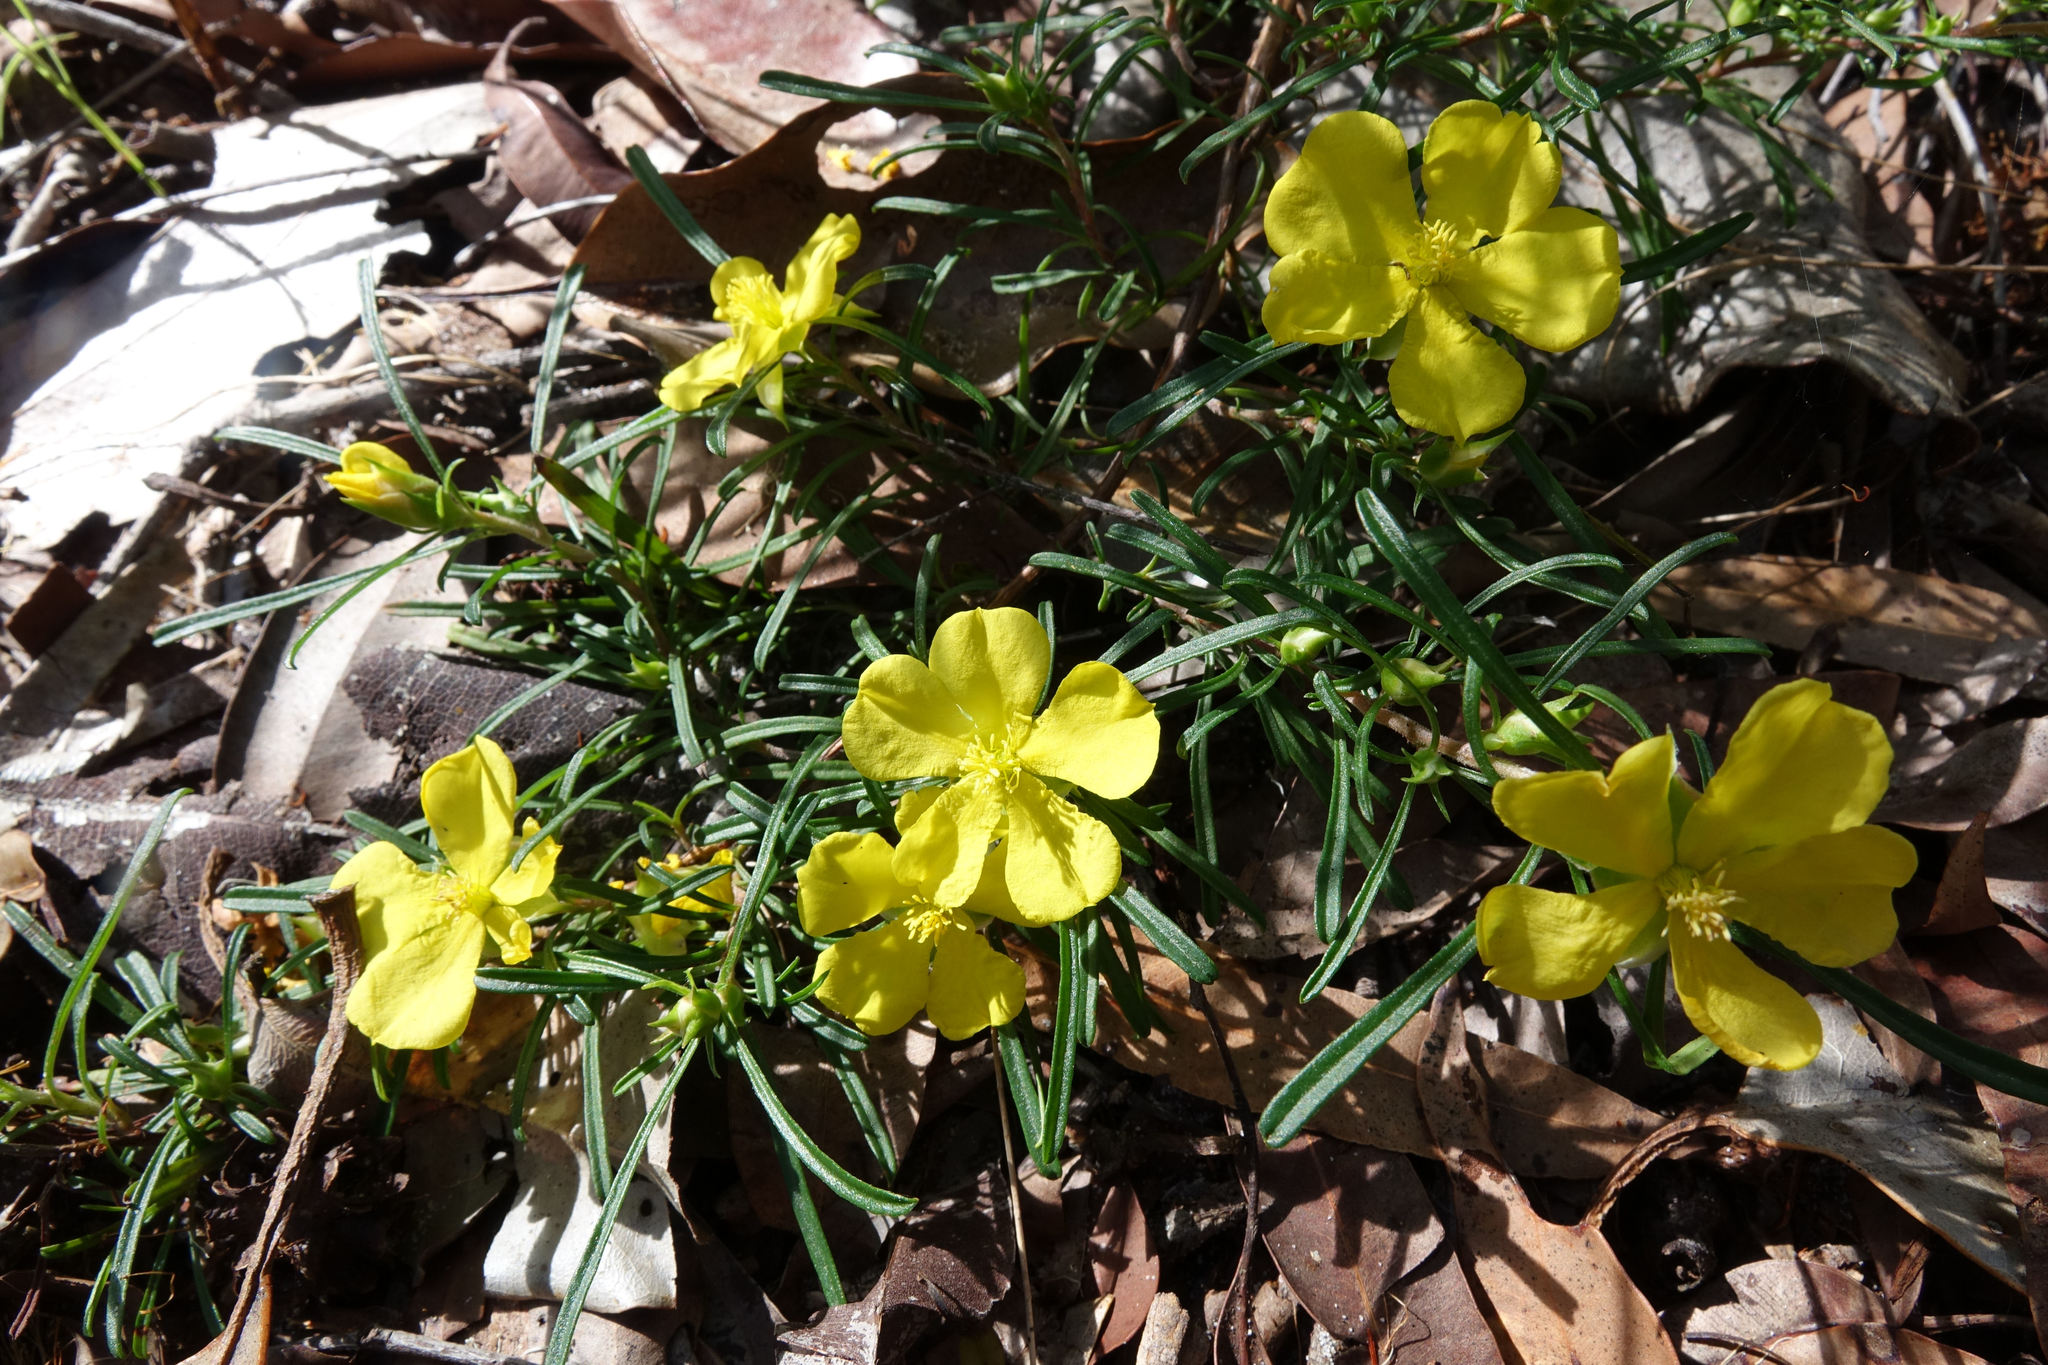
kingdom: Plantae
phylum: Tracheophyta
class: Magnoliopsida
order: Dilleniales
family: Dilleniaceae
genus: Hibbertia
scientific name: Hibbertia linearis
